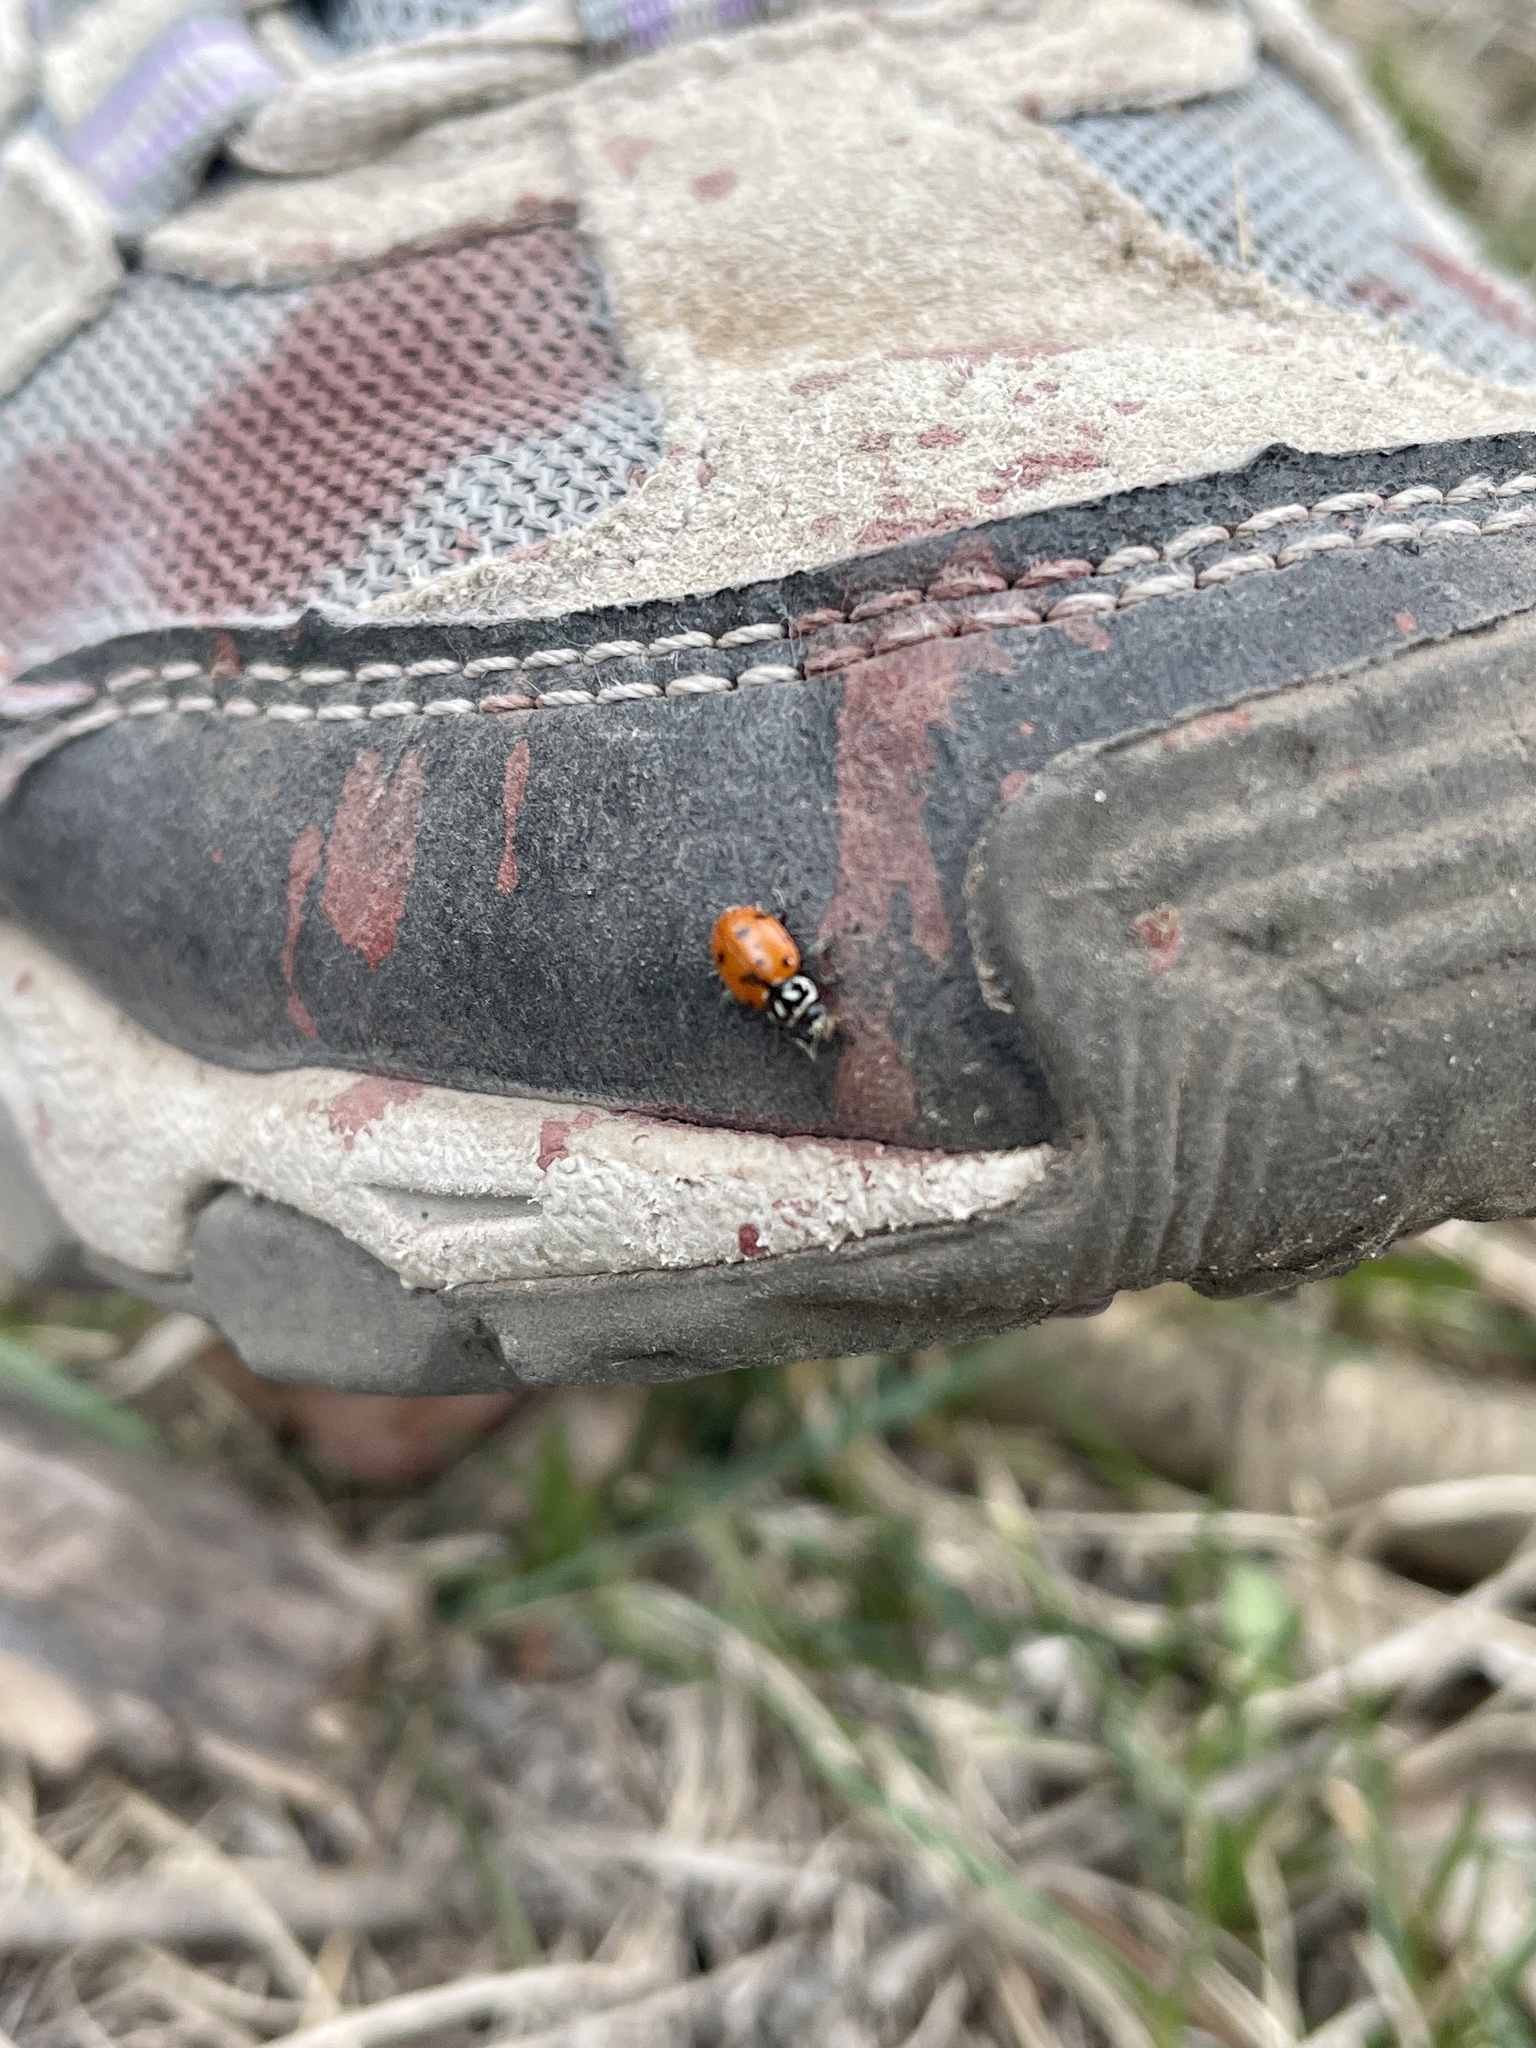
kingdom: Animalia
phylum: Arthropoda
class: Insecta
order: Coleoptera
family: Coccinellidae
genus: Hippodamia
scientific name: Hippodamia convergens
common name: Convergent lady beetle
